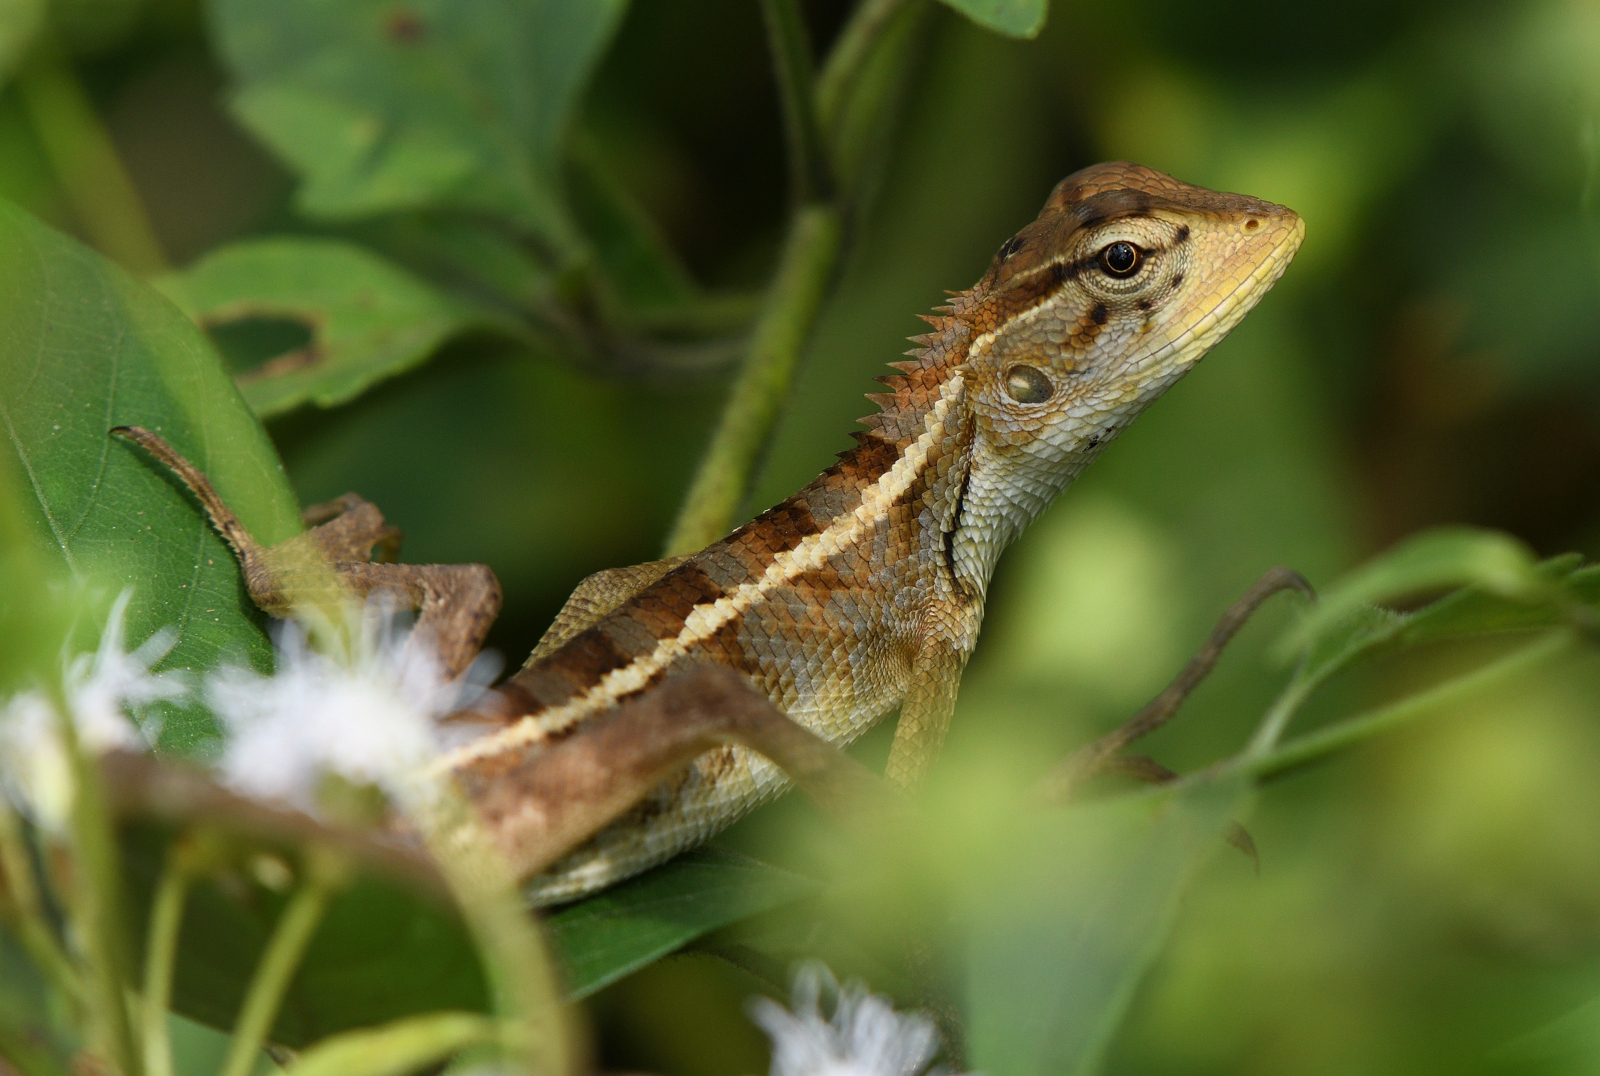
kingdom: Animalia
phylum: Chordata
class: Squamata
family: Agamidae
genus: Calotes
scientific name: Calotes versicolor
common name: Oriental garden lizard
